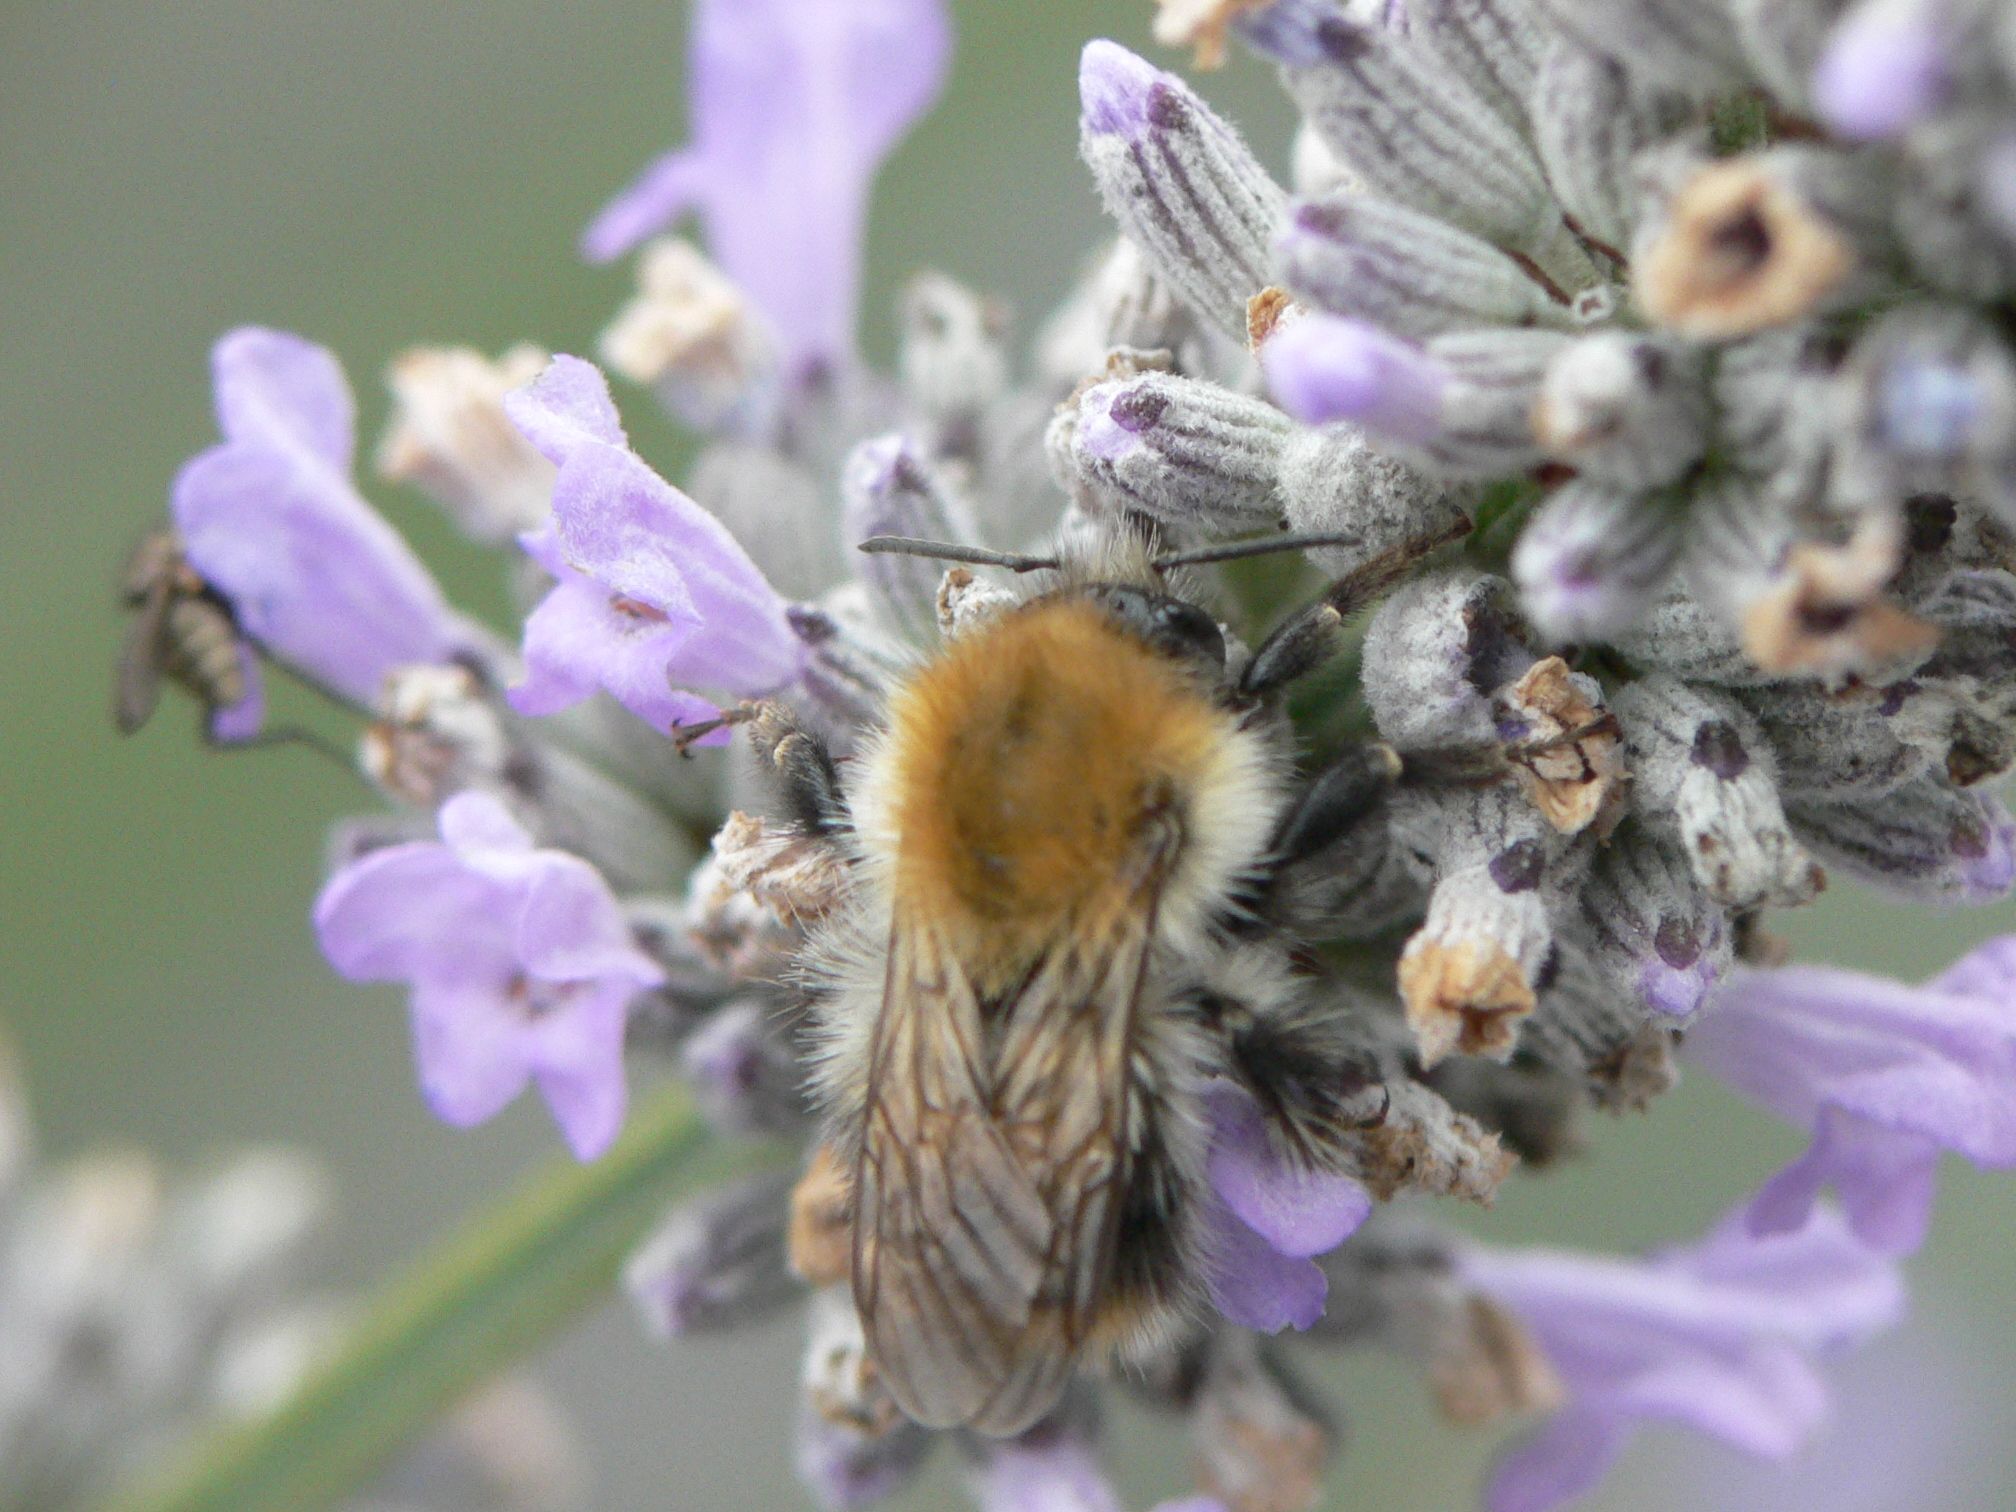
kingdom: Animalia
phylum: Arthropoda
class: Insecta
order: Hymenoptera
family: Apidae
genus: Bombus
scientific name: Bombus pascuorum
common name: Common carder bee
